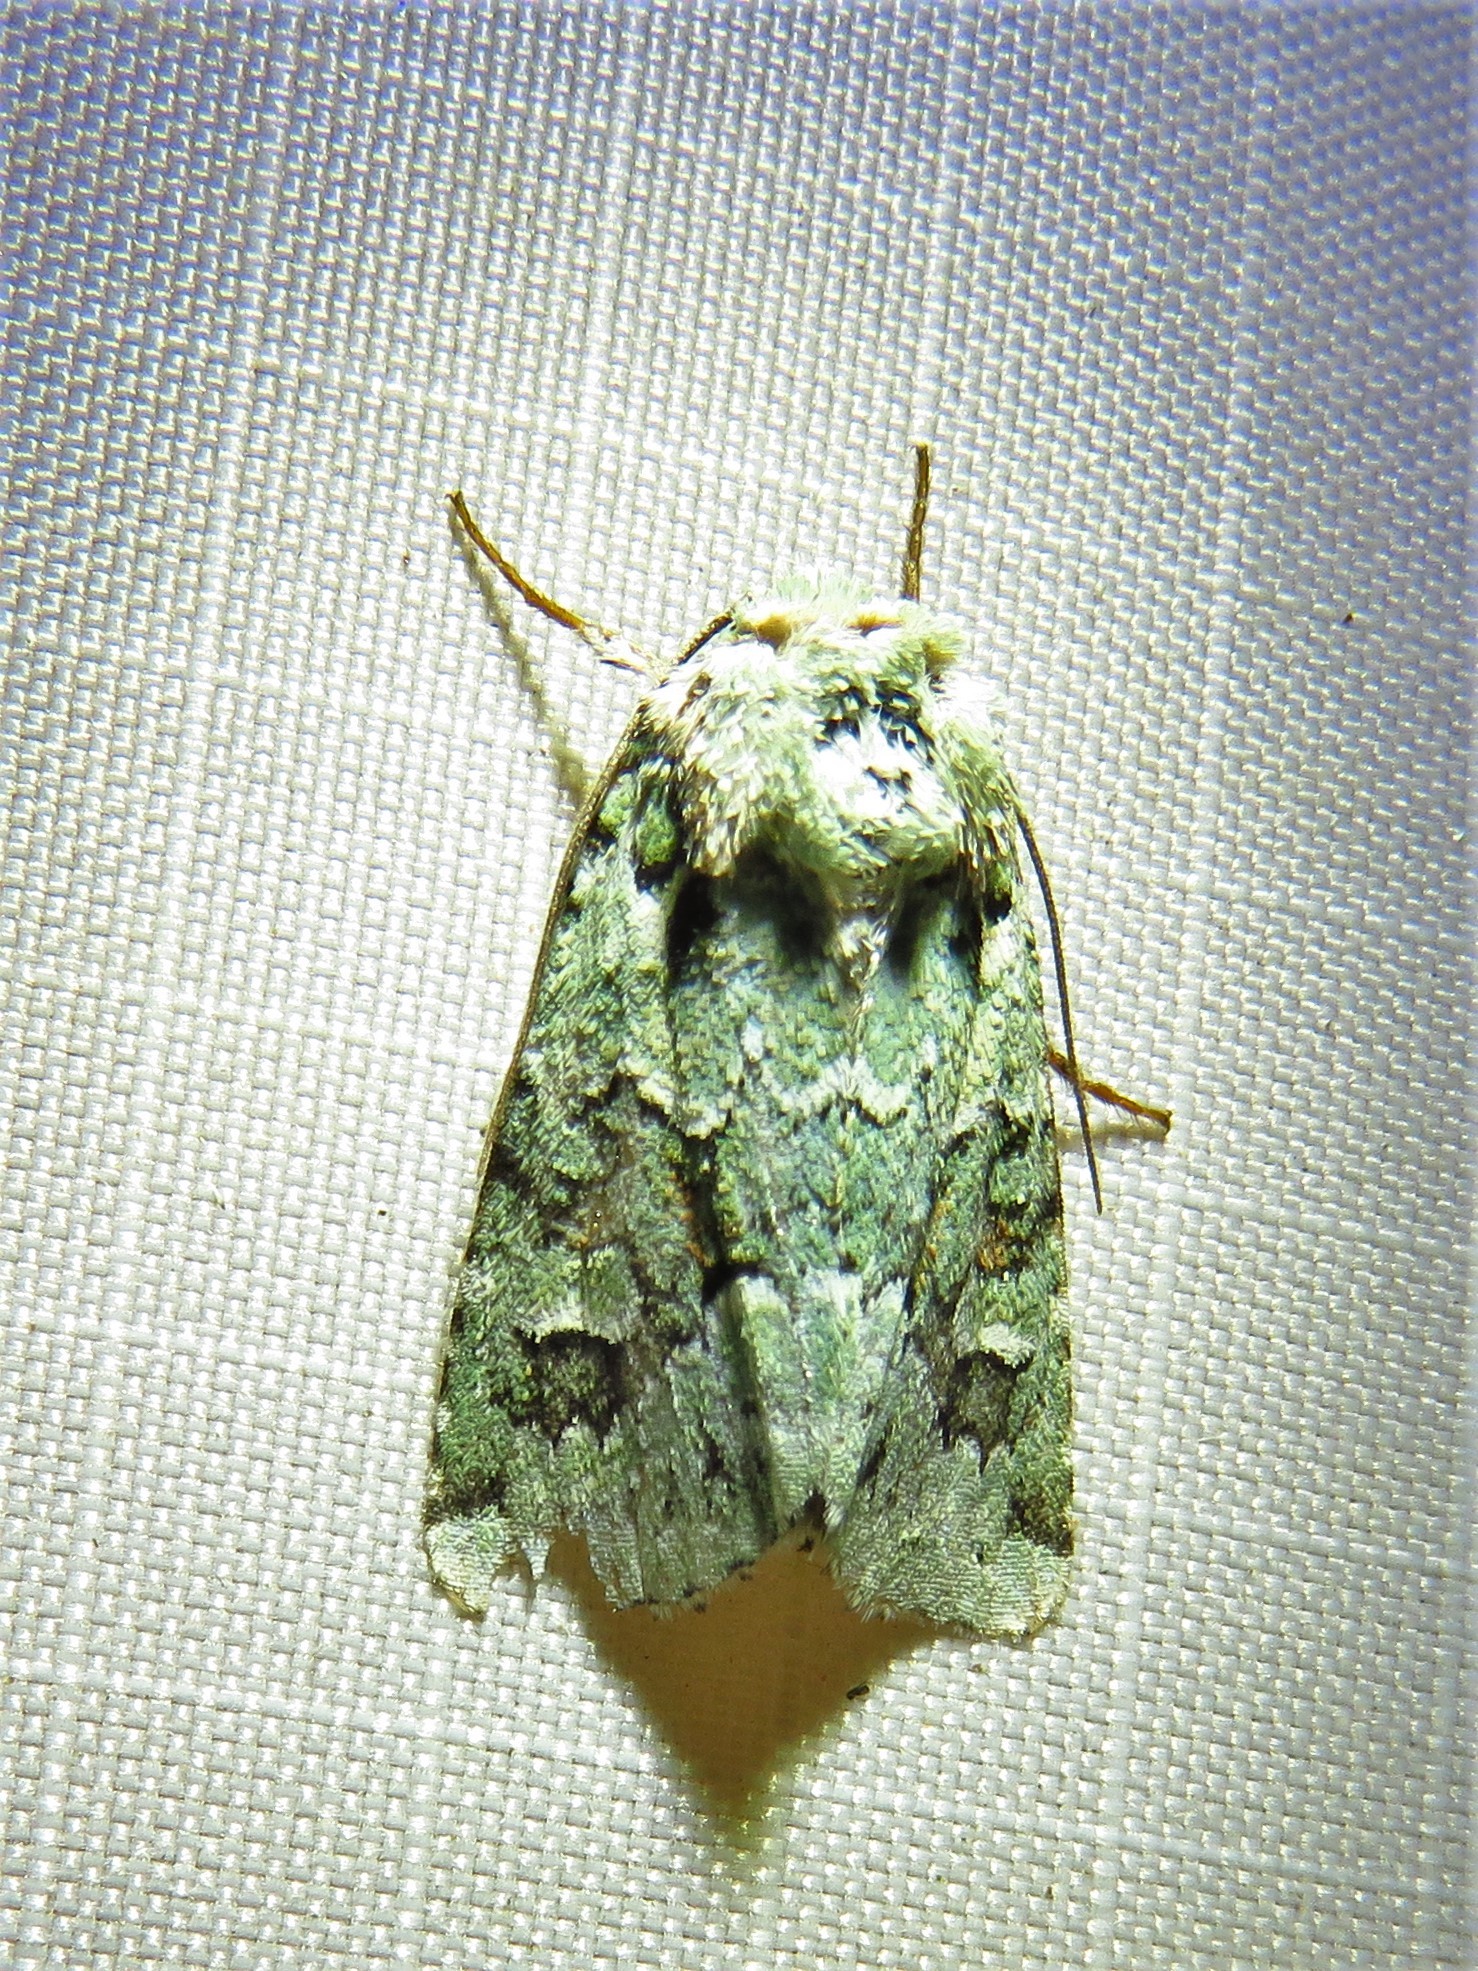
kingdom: Animalia
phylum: Arthropoda
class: Insecta
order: Lepidoptera
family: Noctuidae
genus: Lacinipolia
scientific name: Lacinipolia laudabilis
